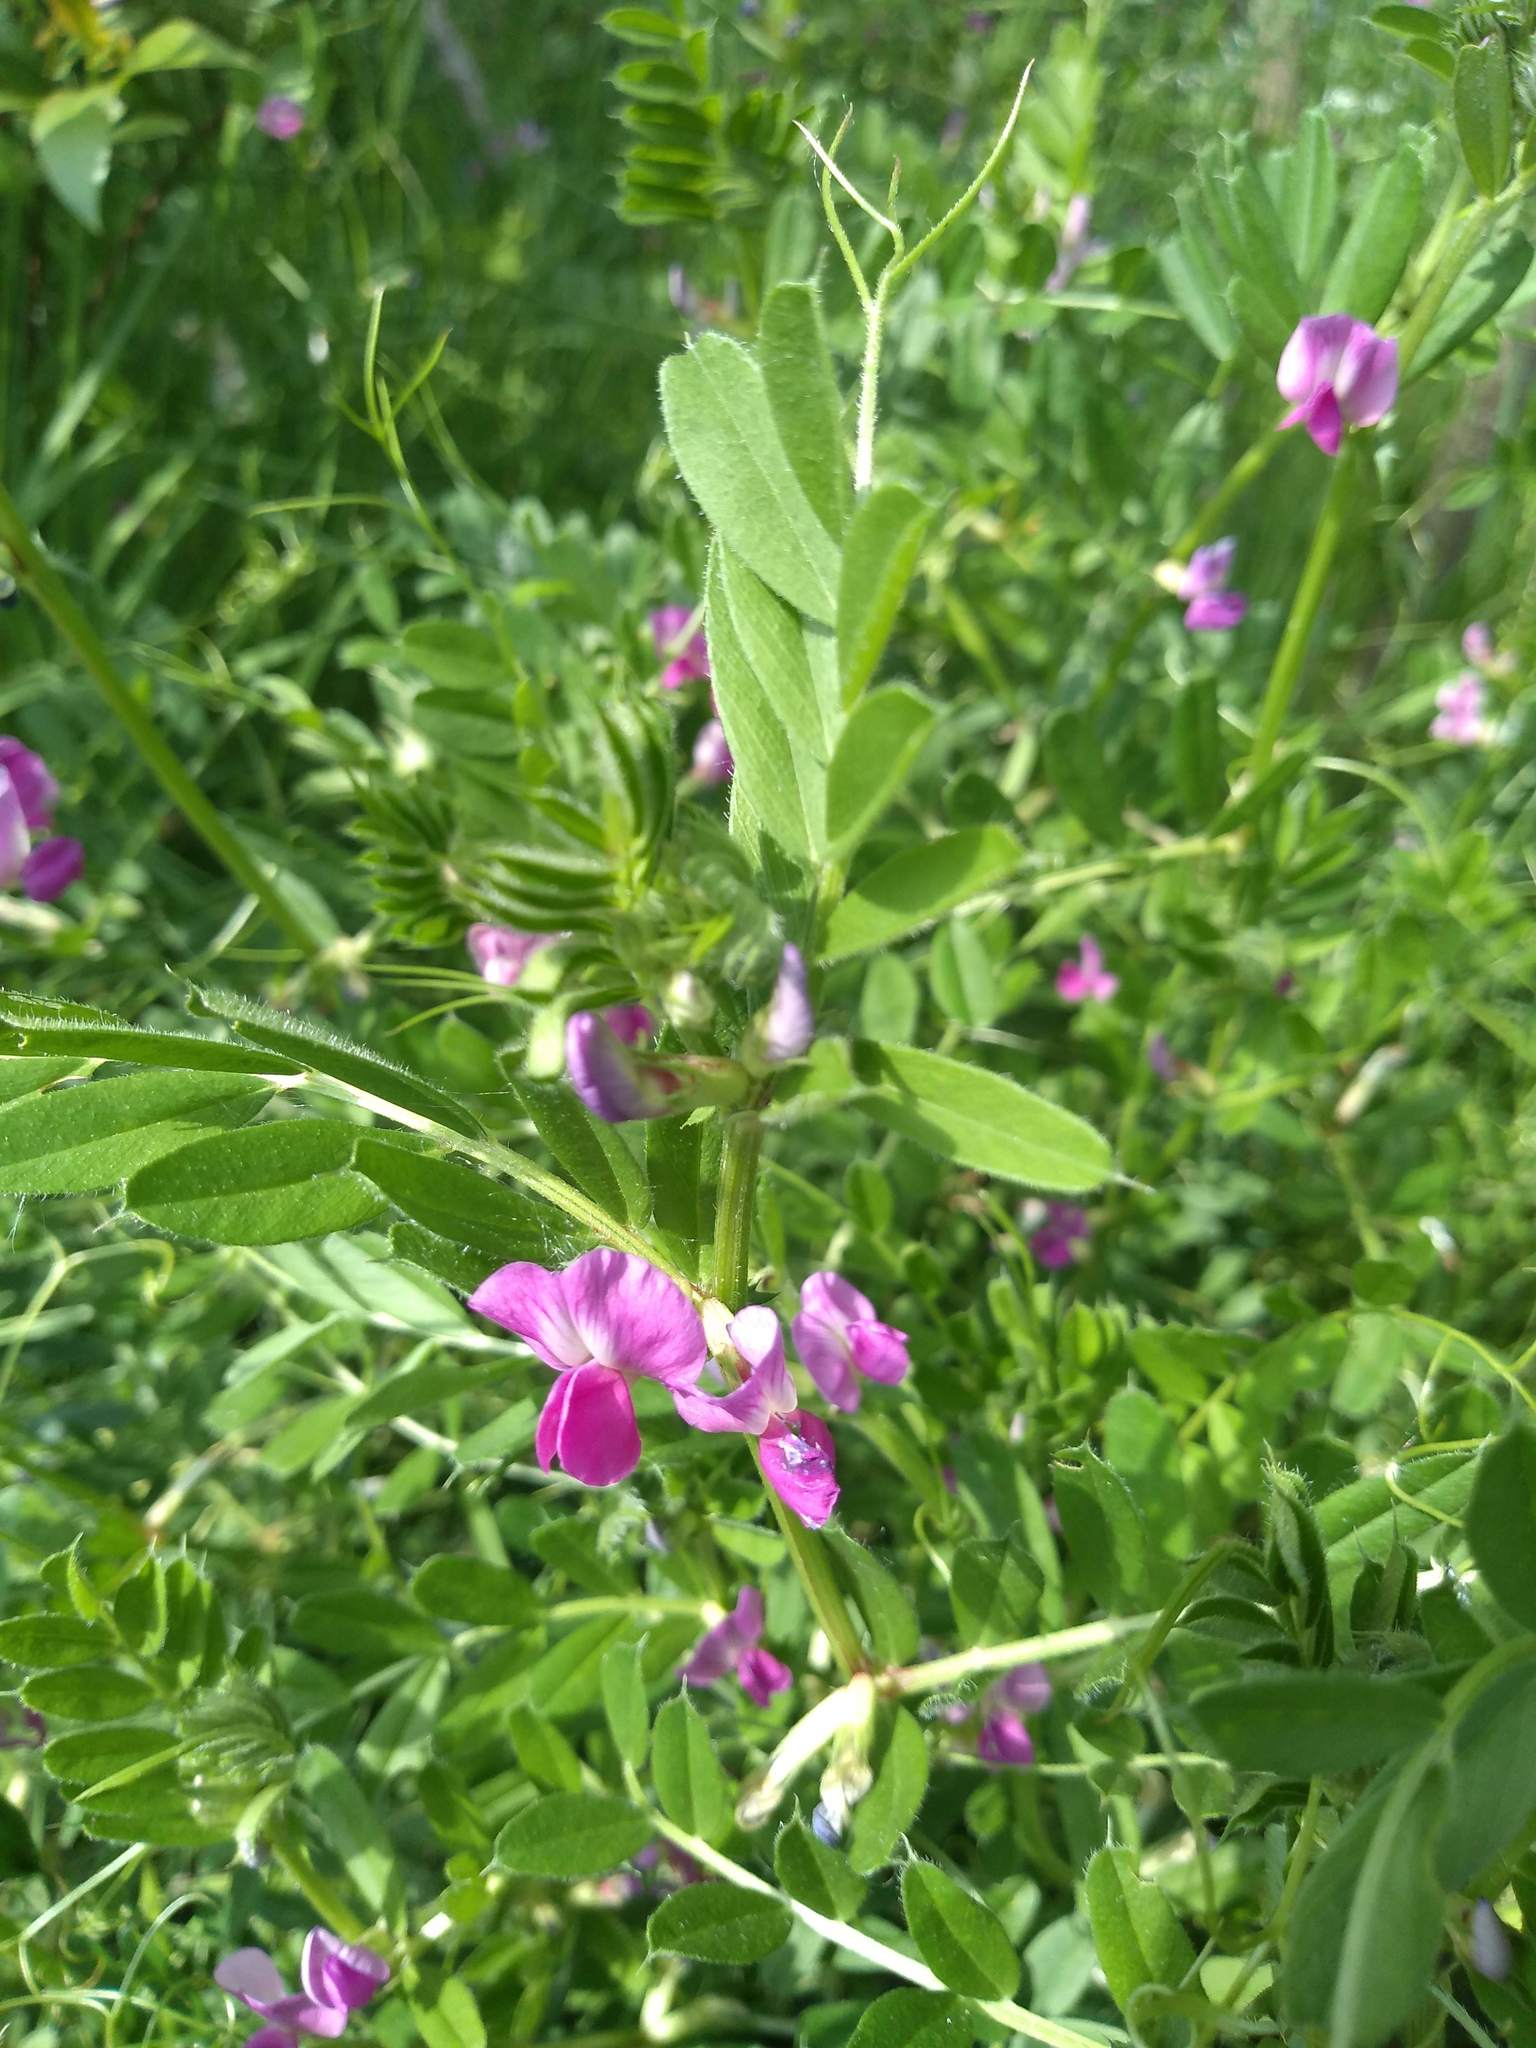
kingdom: Plantae
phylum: Tracheophyta
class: Magnoliopsida
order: Fabales
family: Fabaceae
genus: Vicia
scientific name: Vicia sativa
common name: Garden vetch
